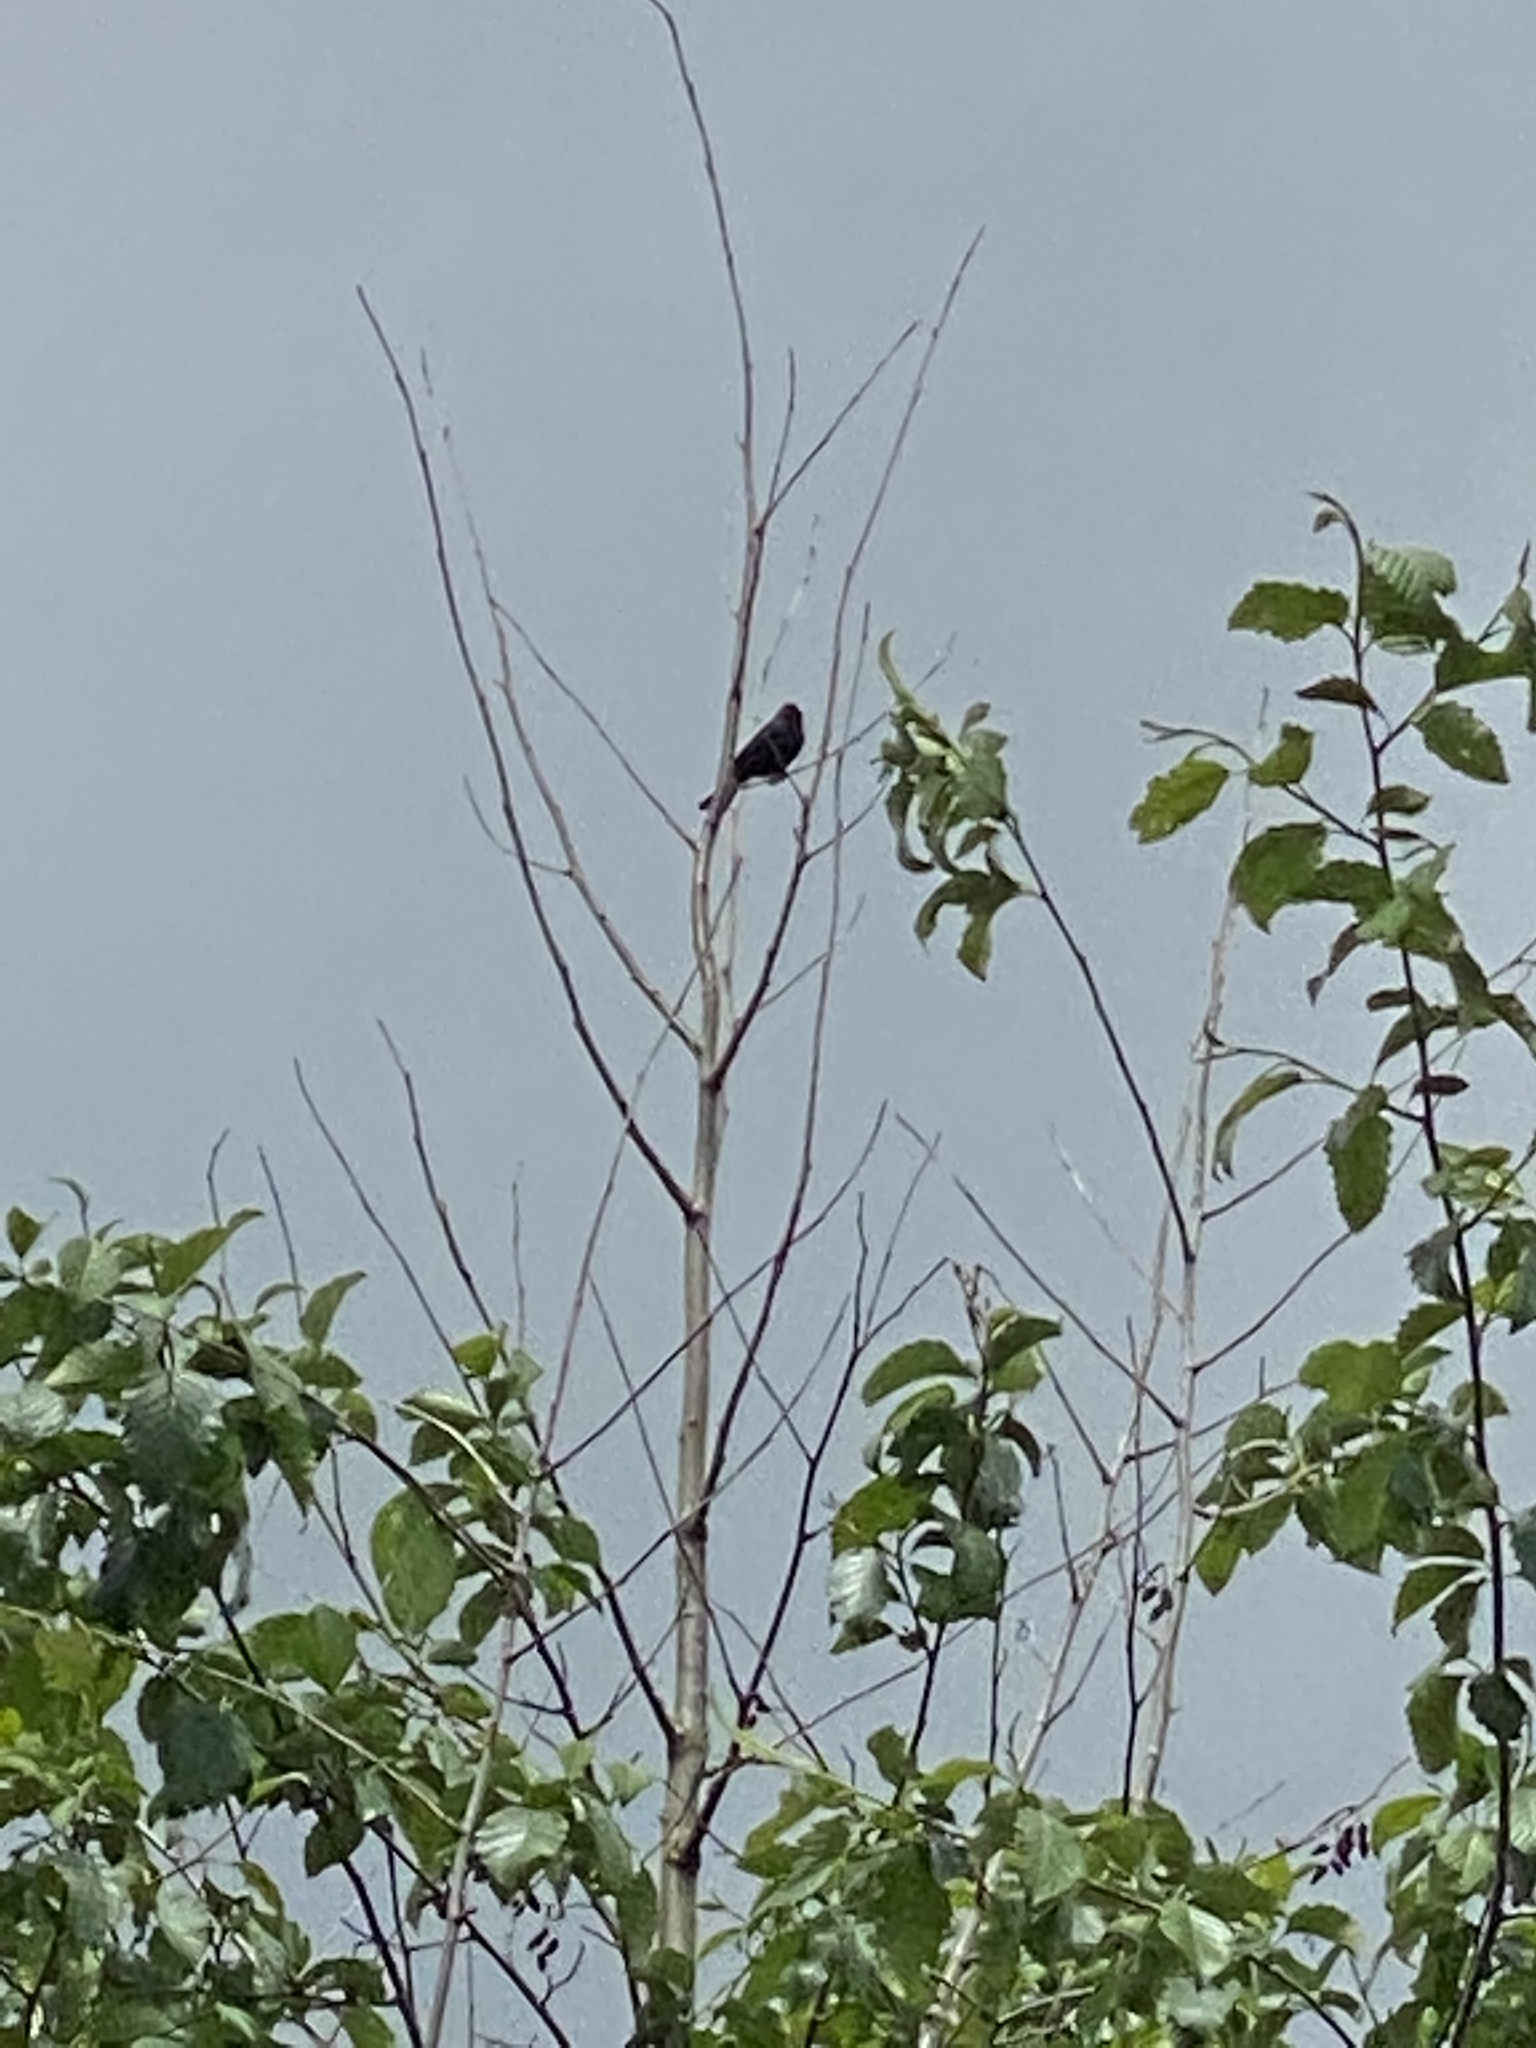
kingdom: Animalia
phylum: Chordata
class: Aves
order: Passeriformes
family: Icteridae
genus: Molothrus
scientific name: Molothrus ater
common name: Brown-headed cowbird
